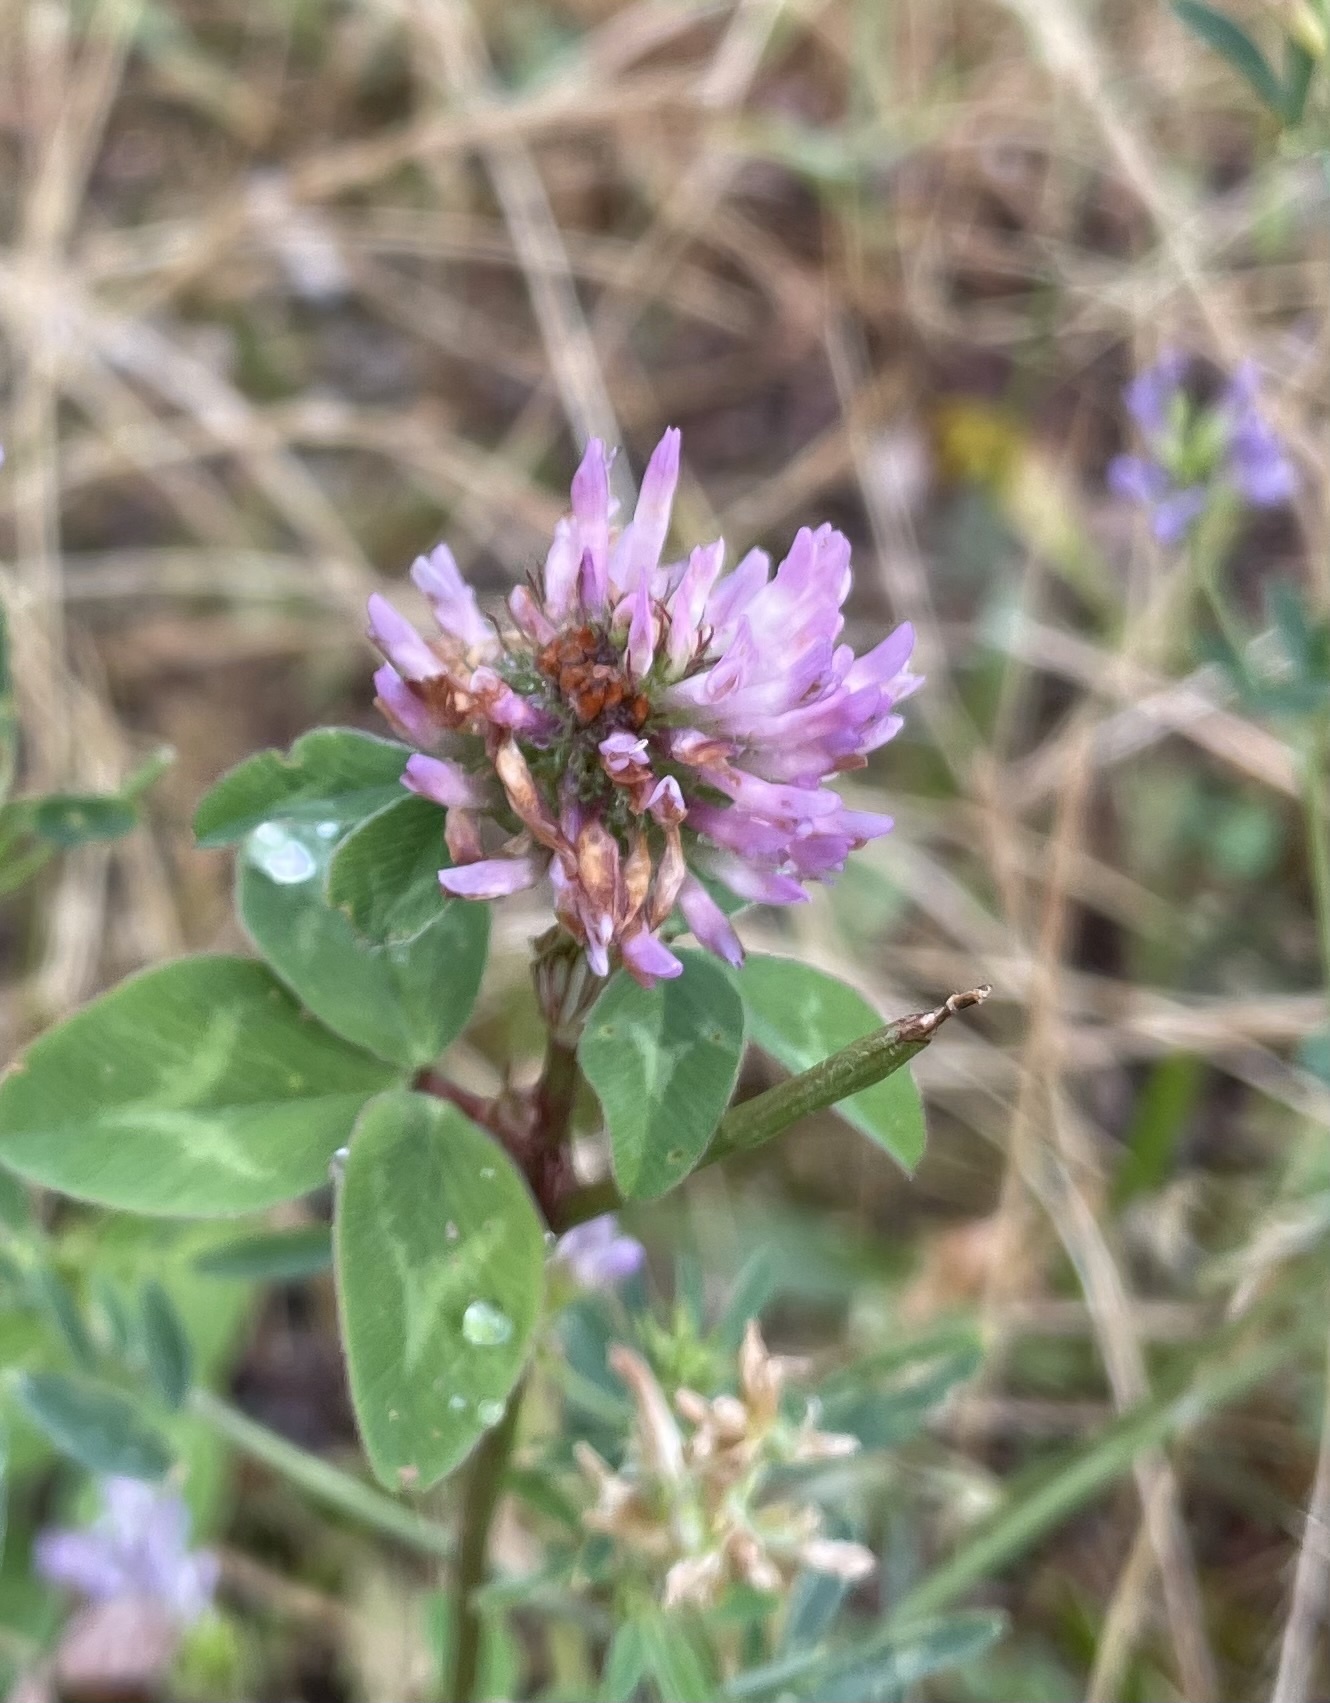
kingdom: Plantae
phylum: Tracheophyta
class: Magnoliopsida
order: Fabales
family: Fabaceae
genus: Trifolium
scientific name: Trifolium pratense
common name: Red clover
